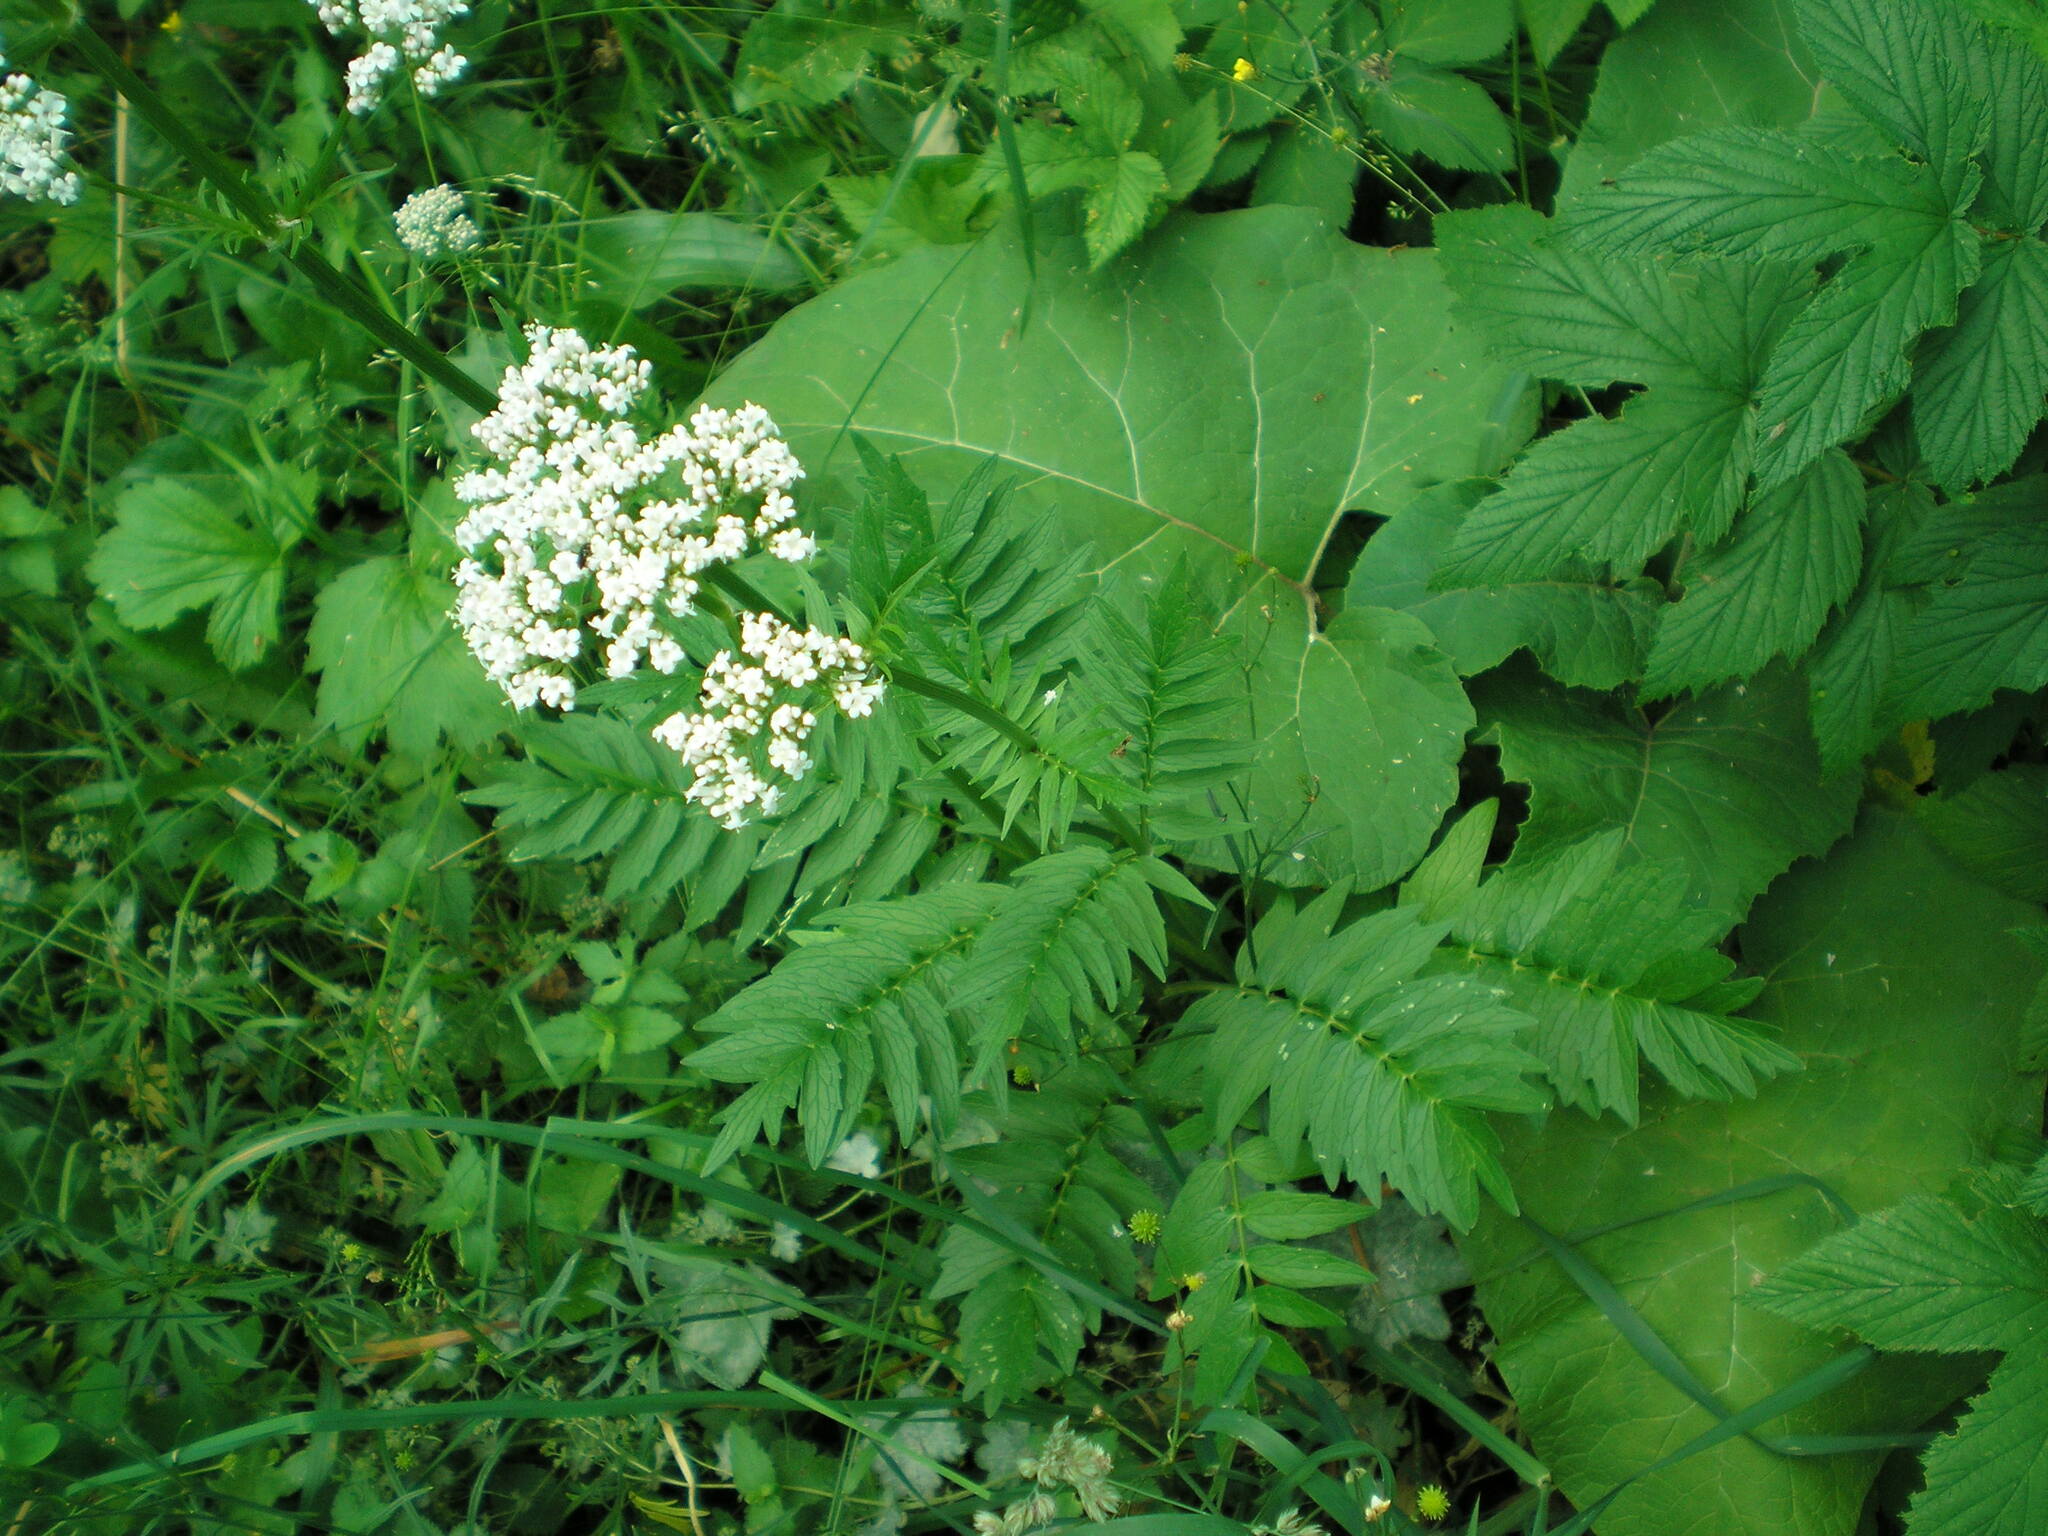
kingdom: Plantae
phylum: Tracheophyta
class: Magnoliopsida
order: Dipsacales
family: Caprifoliaceae
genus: Valeriana
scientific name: Valeriana officinalis
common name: Common valerian
